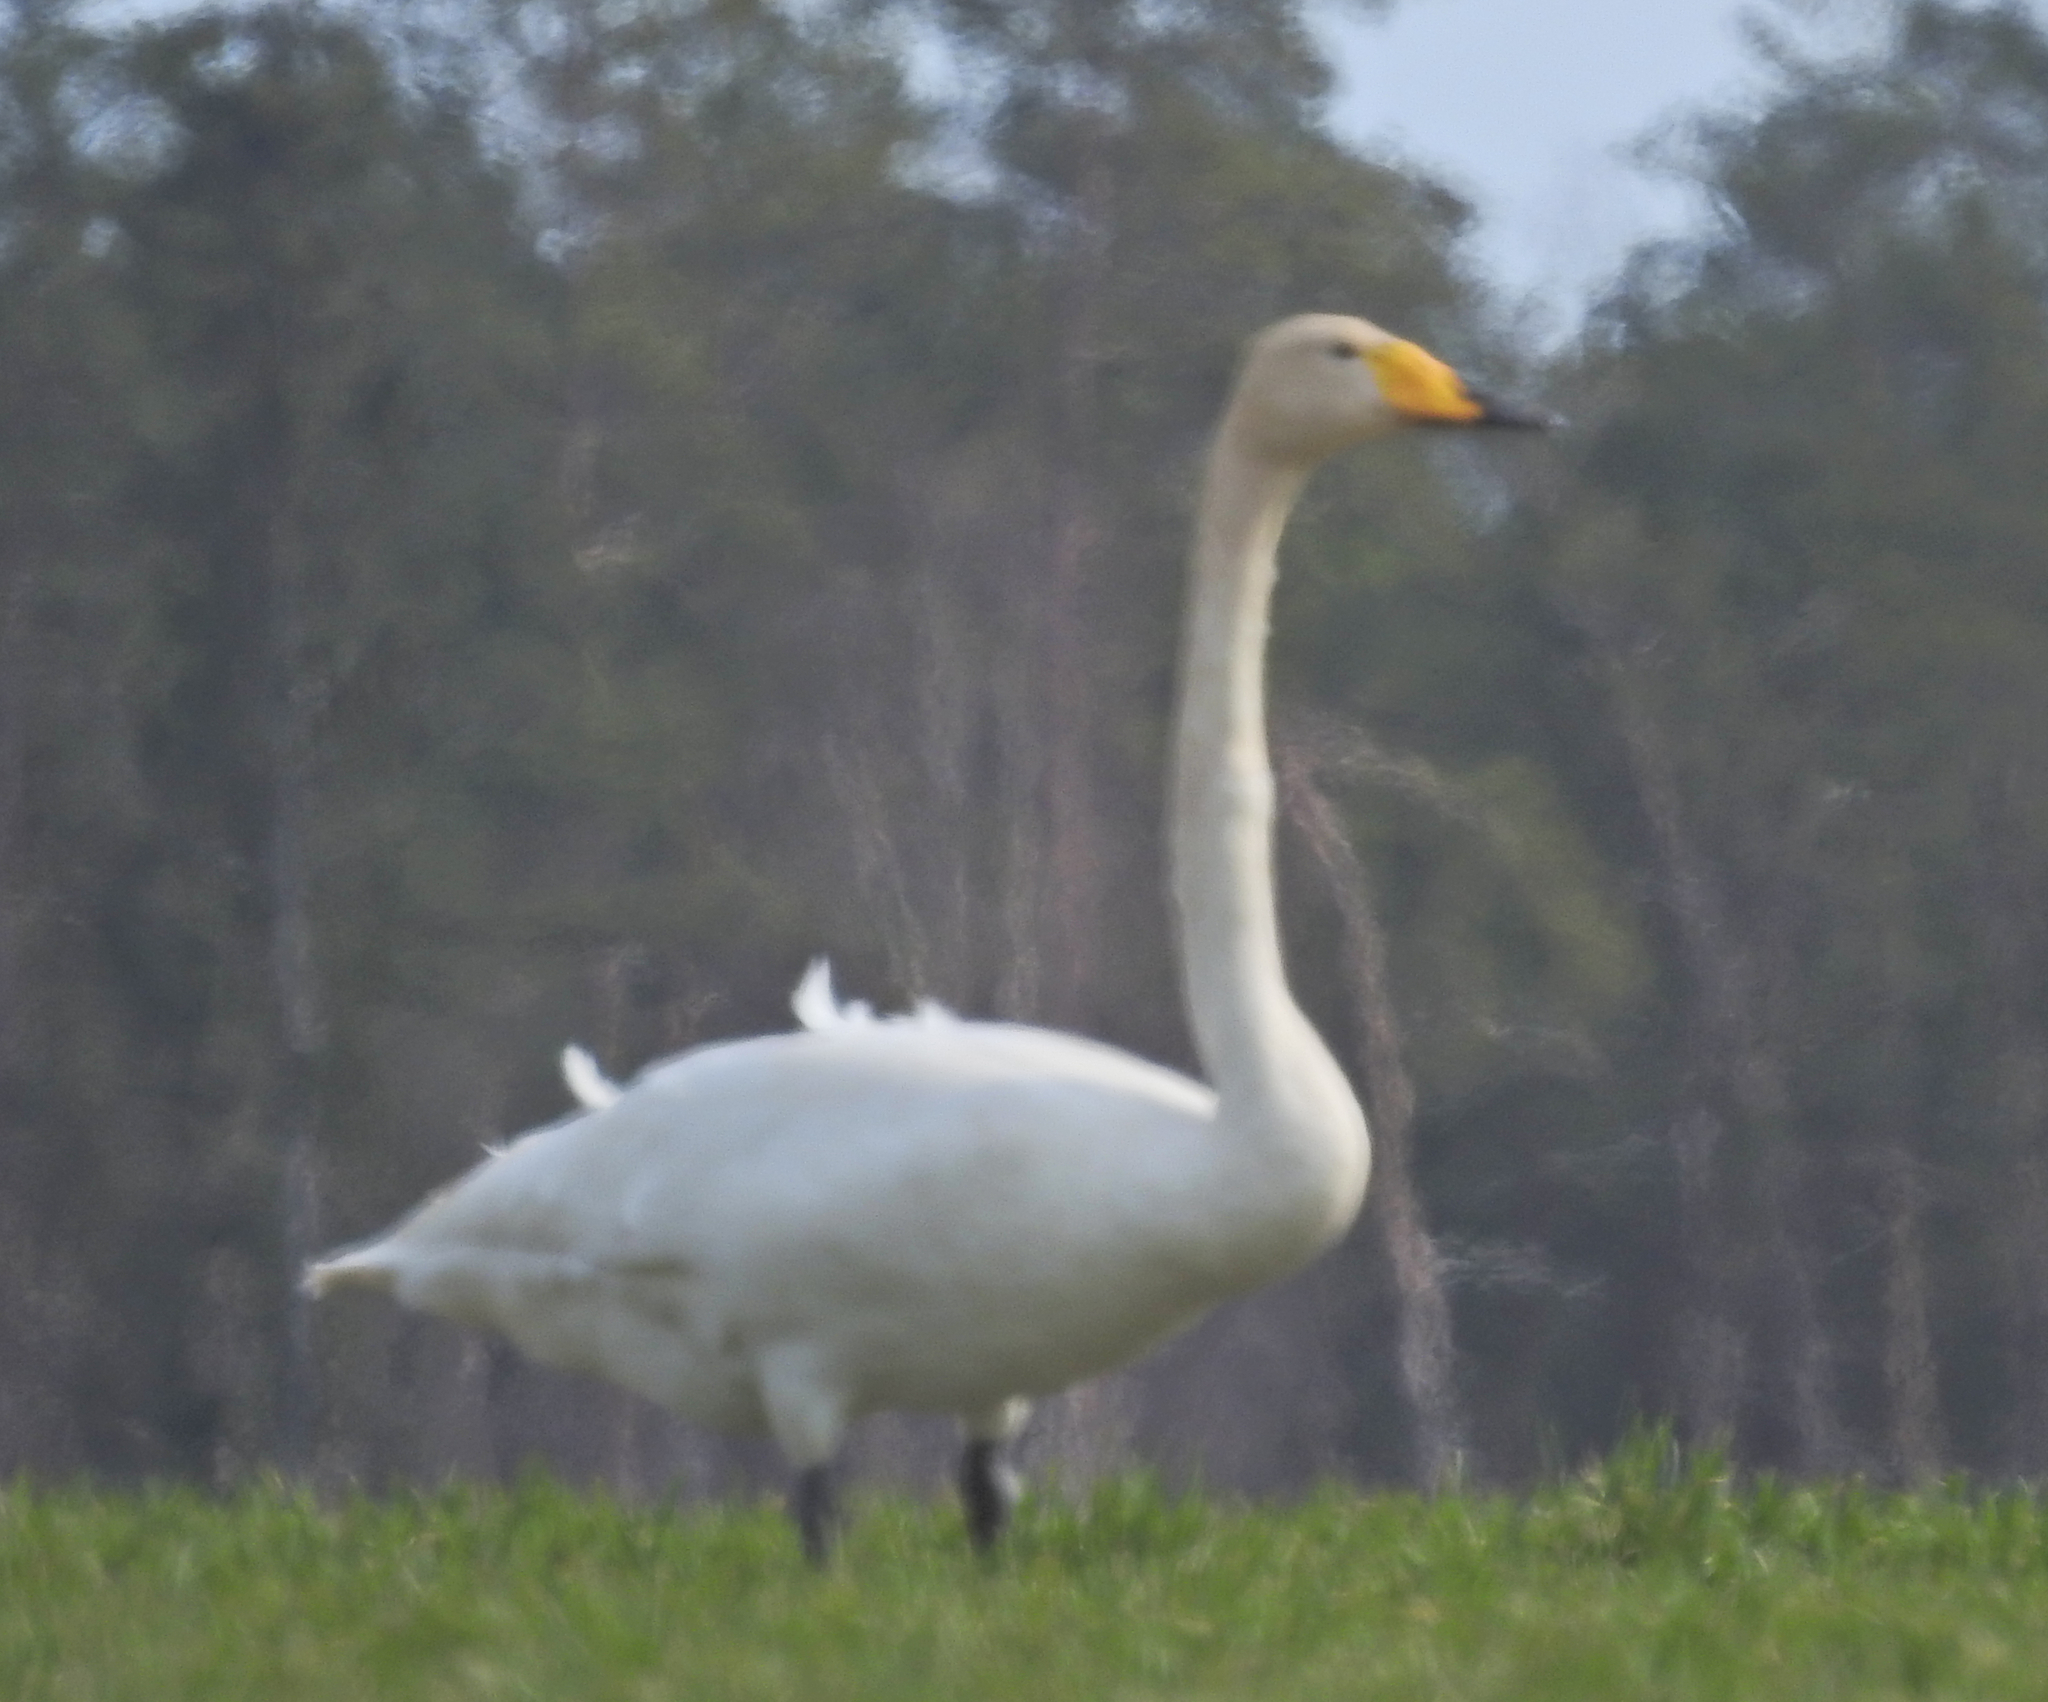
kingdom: Animalia
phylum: Chordata
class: Aves
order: Anseriformes
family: Anatidae
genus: Cygnus
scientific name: Cygnus cygnus
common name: Whooper swan
